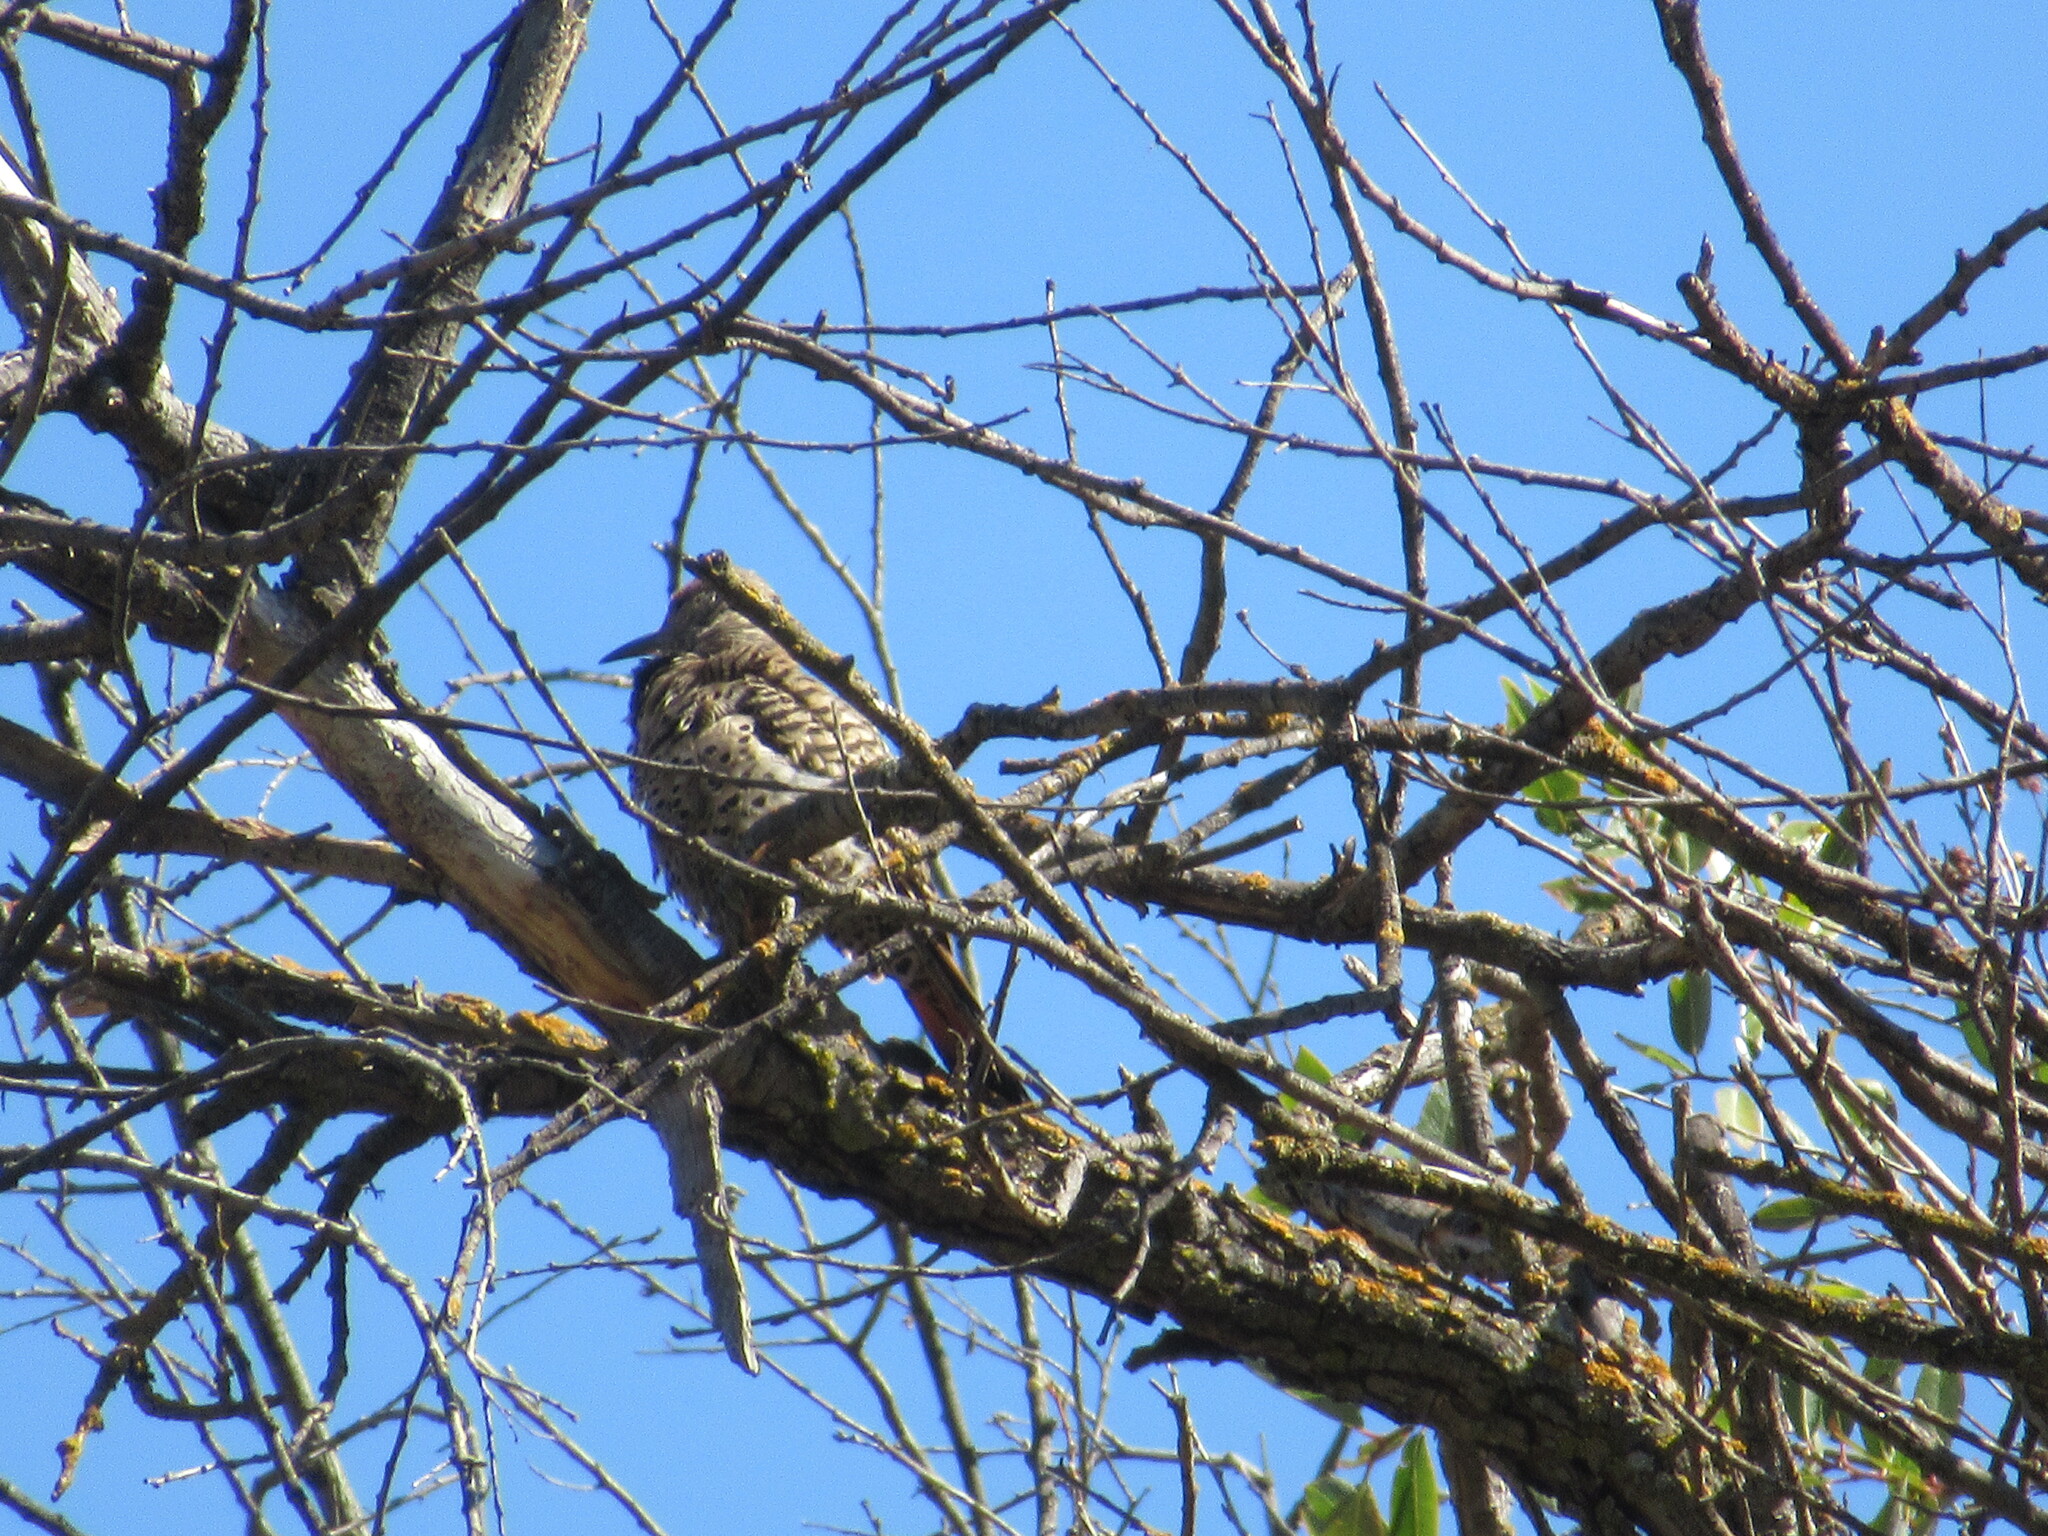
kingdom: Animalia
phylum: Chordata
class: Aves
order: Piciformes
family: Picidae
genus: Colaptes
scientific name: Colaptes auratus
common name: Northern flicker
